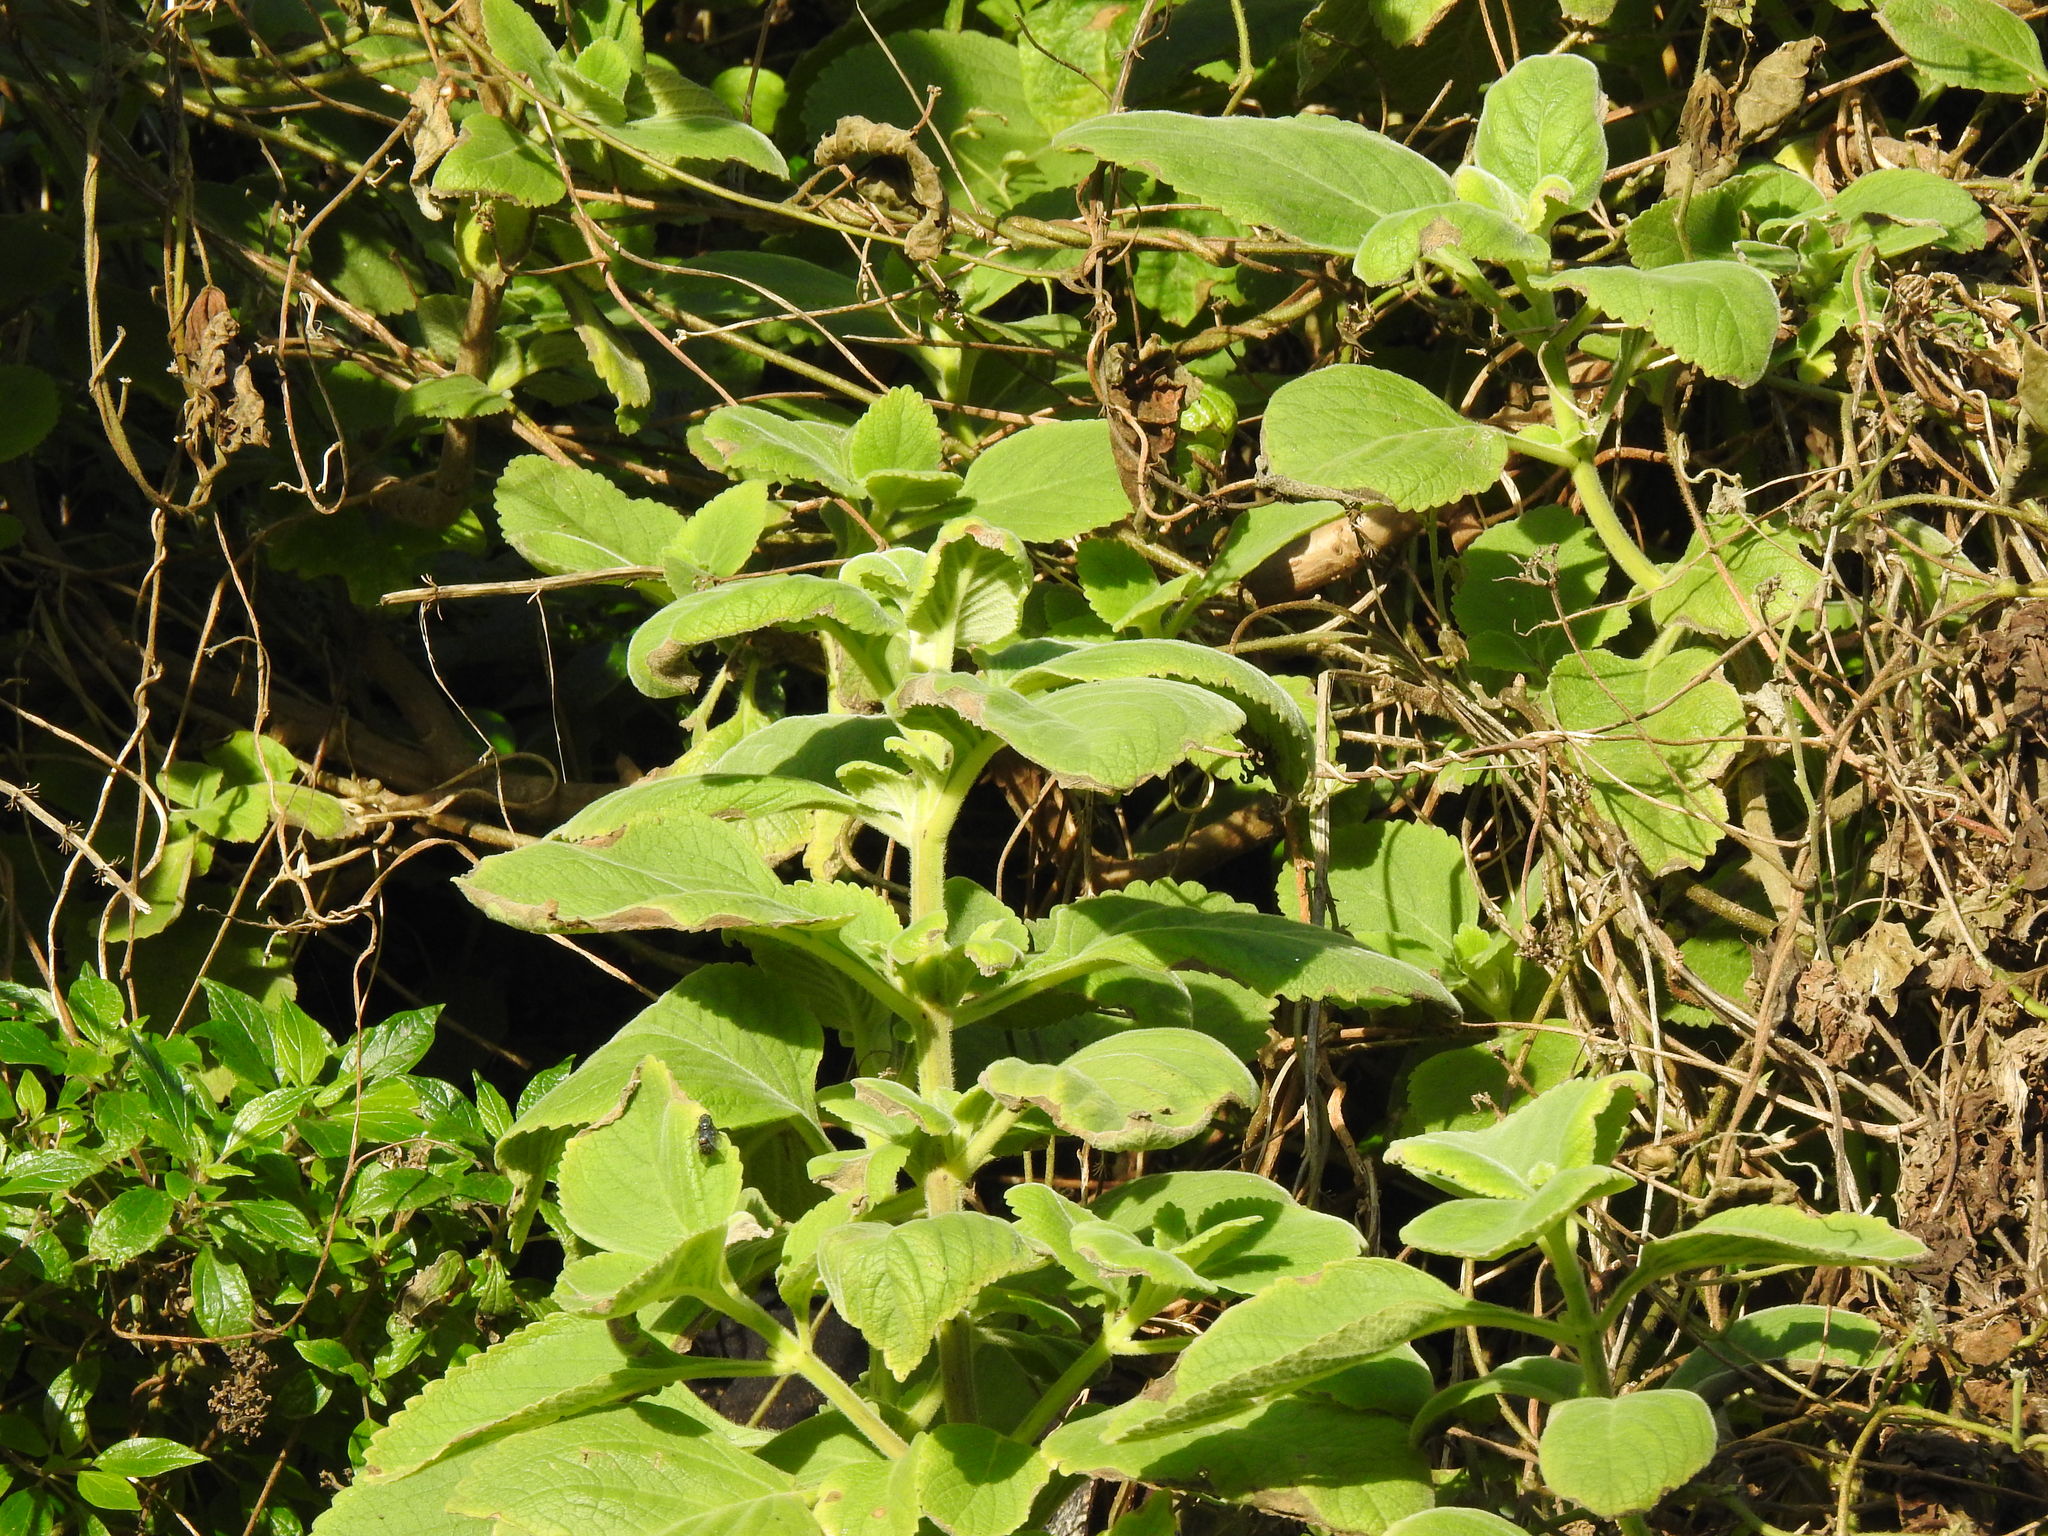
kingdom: Plantae
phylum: Tracheophyta
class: Magnoliopsida
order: Lamiales
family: Lamiaceae
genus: Coleus
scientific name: Coleus barbatus
